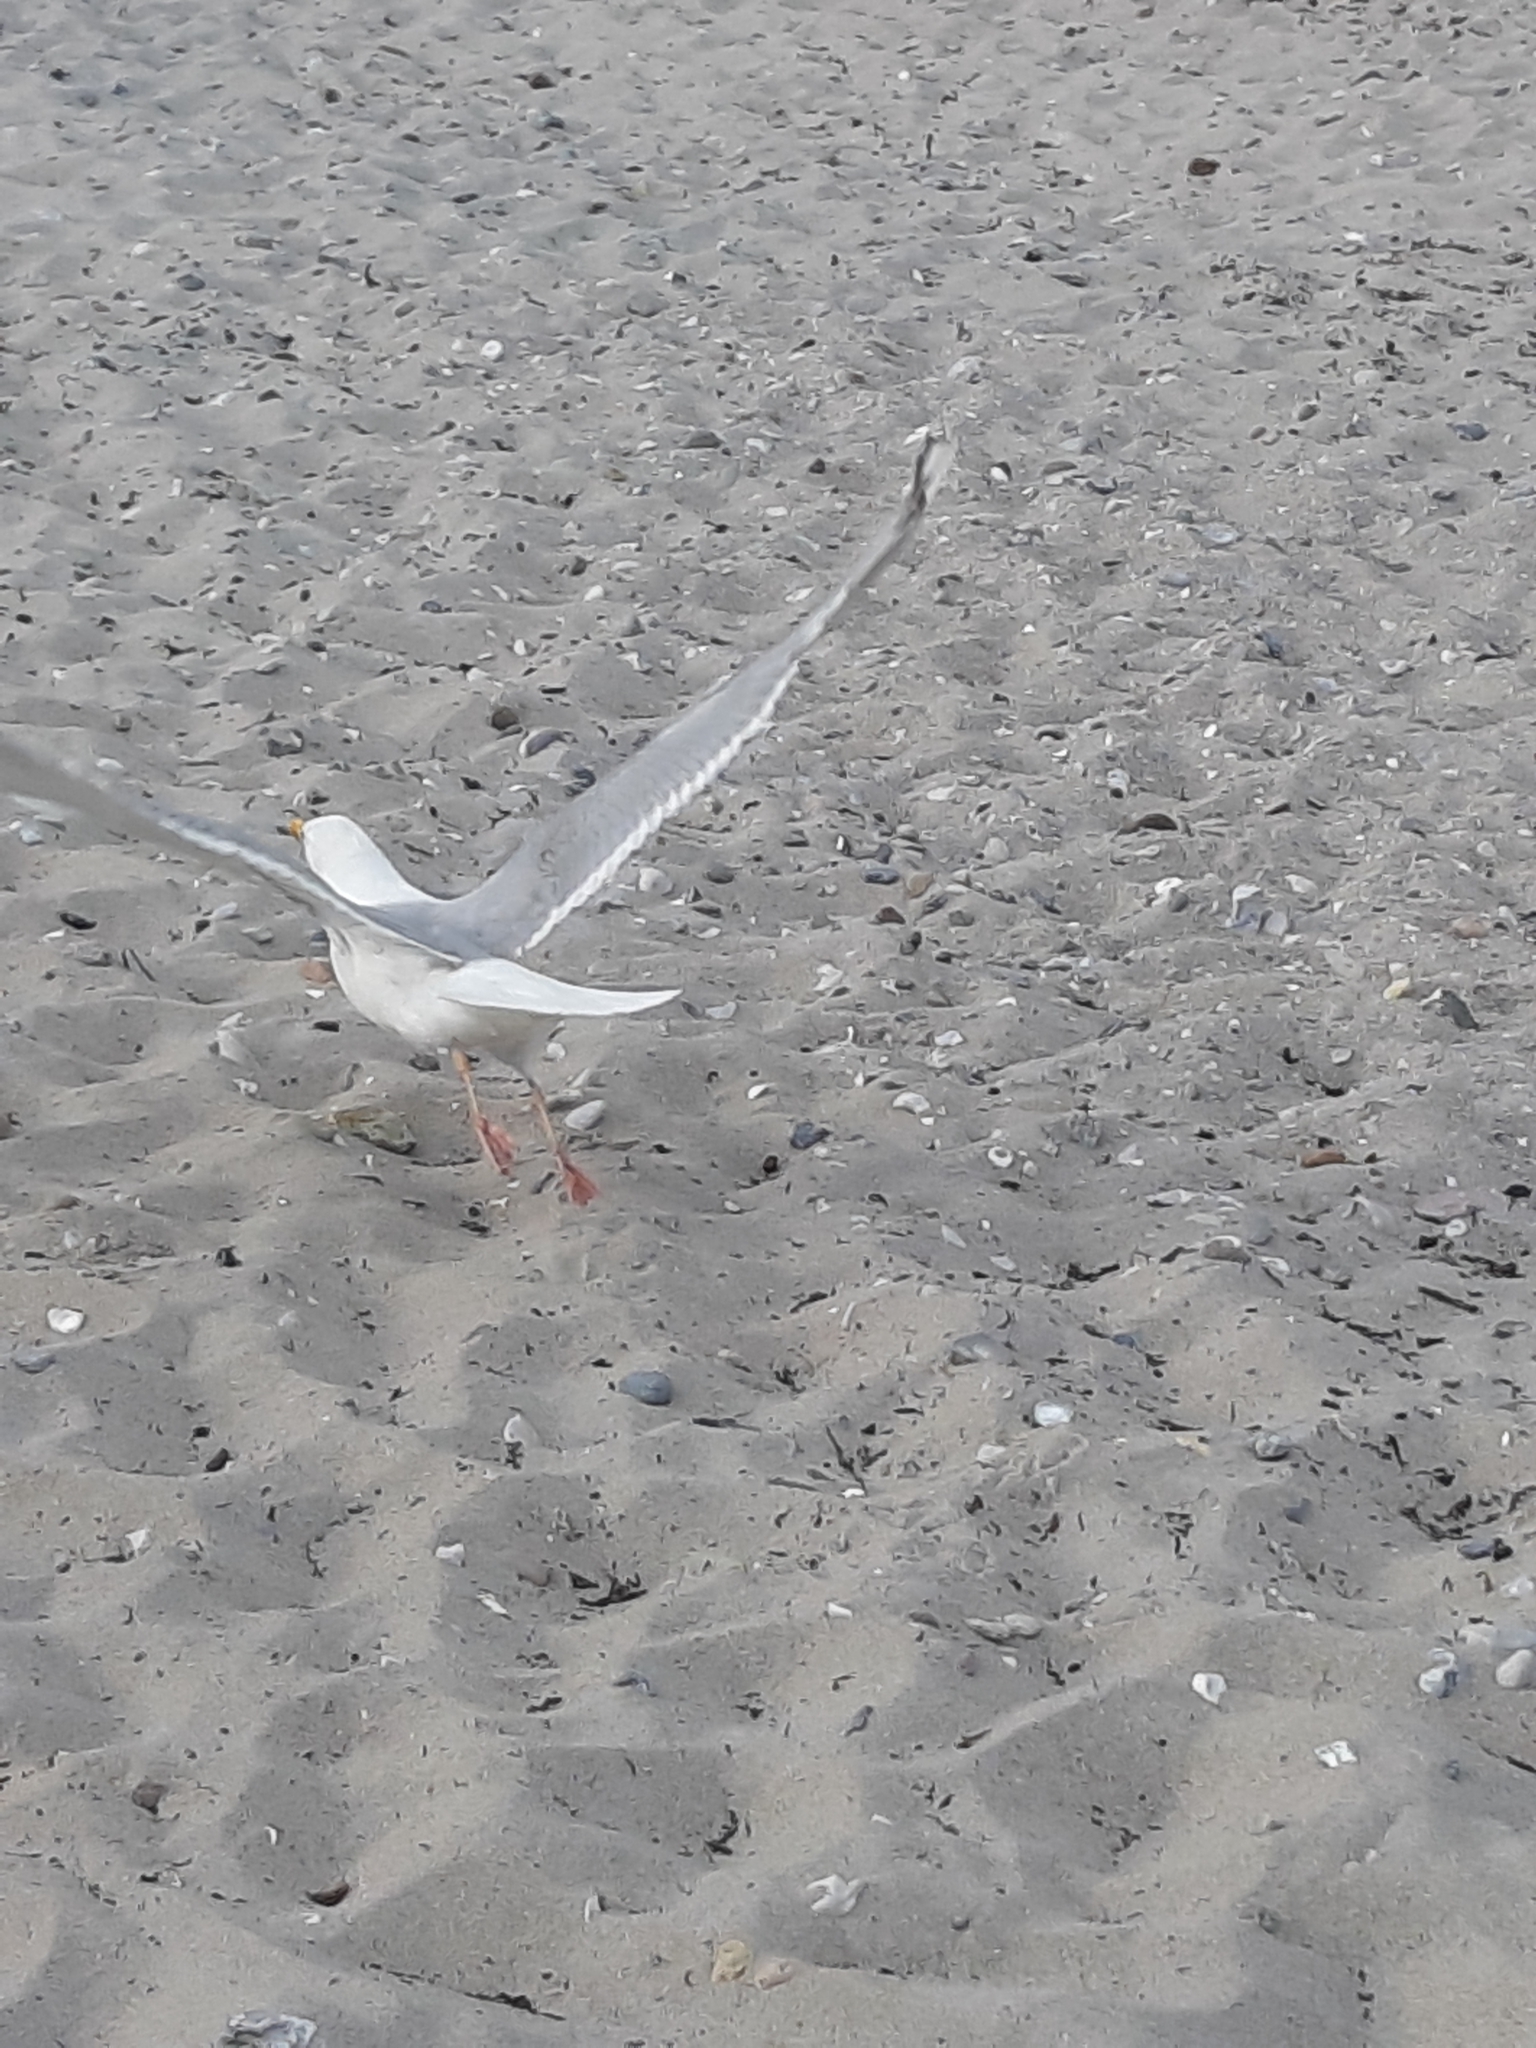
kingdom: Animalia
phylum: Chordata
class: Aves
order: Charadriiformes
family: Laridae
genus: Larus
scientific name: Larus argentatus
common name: Herring gull
